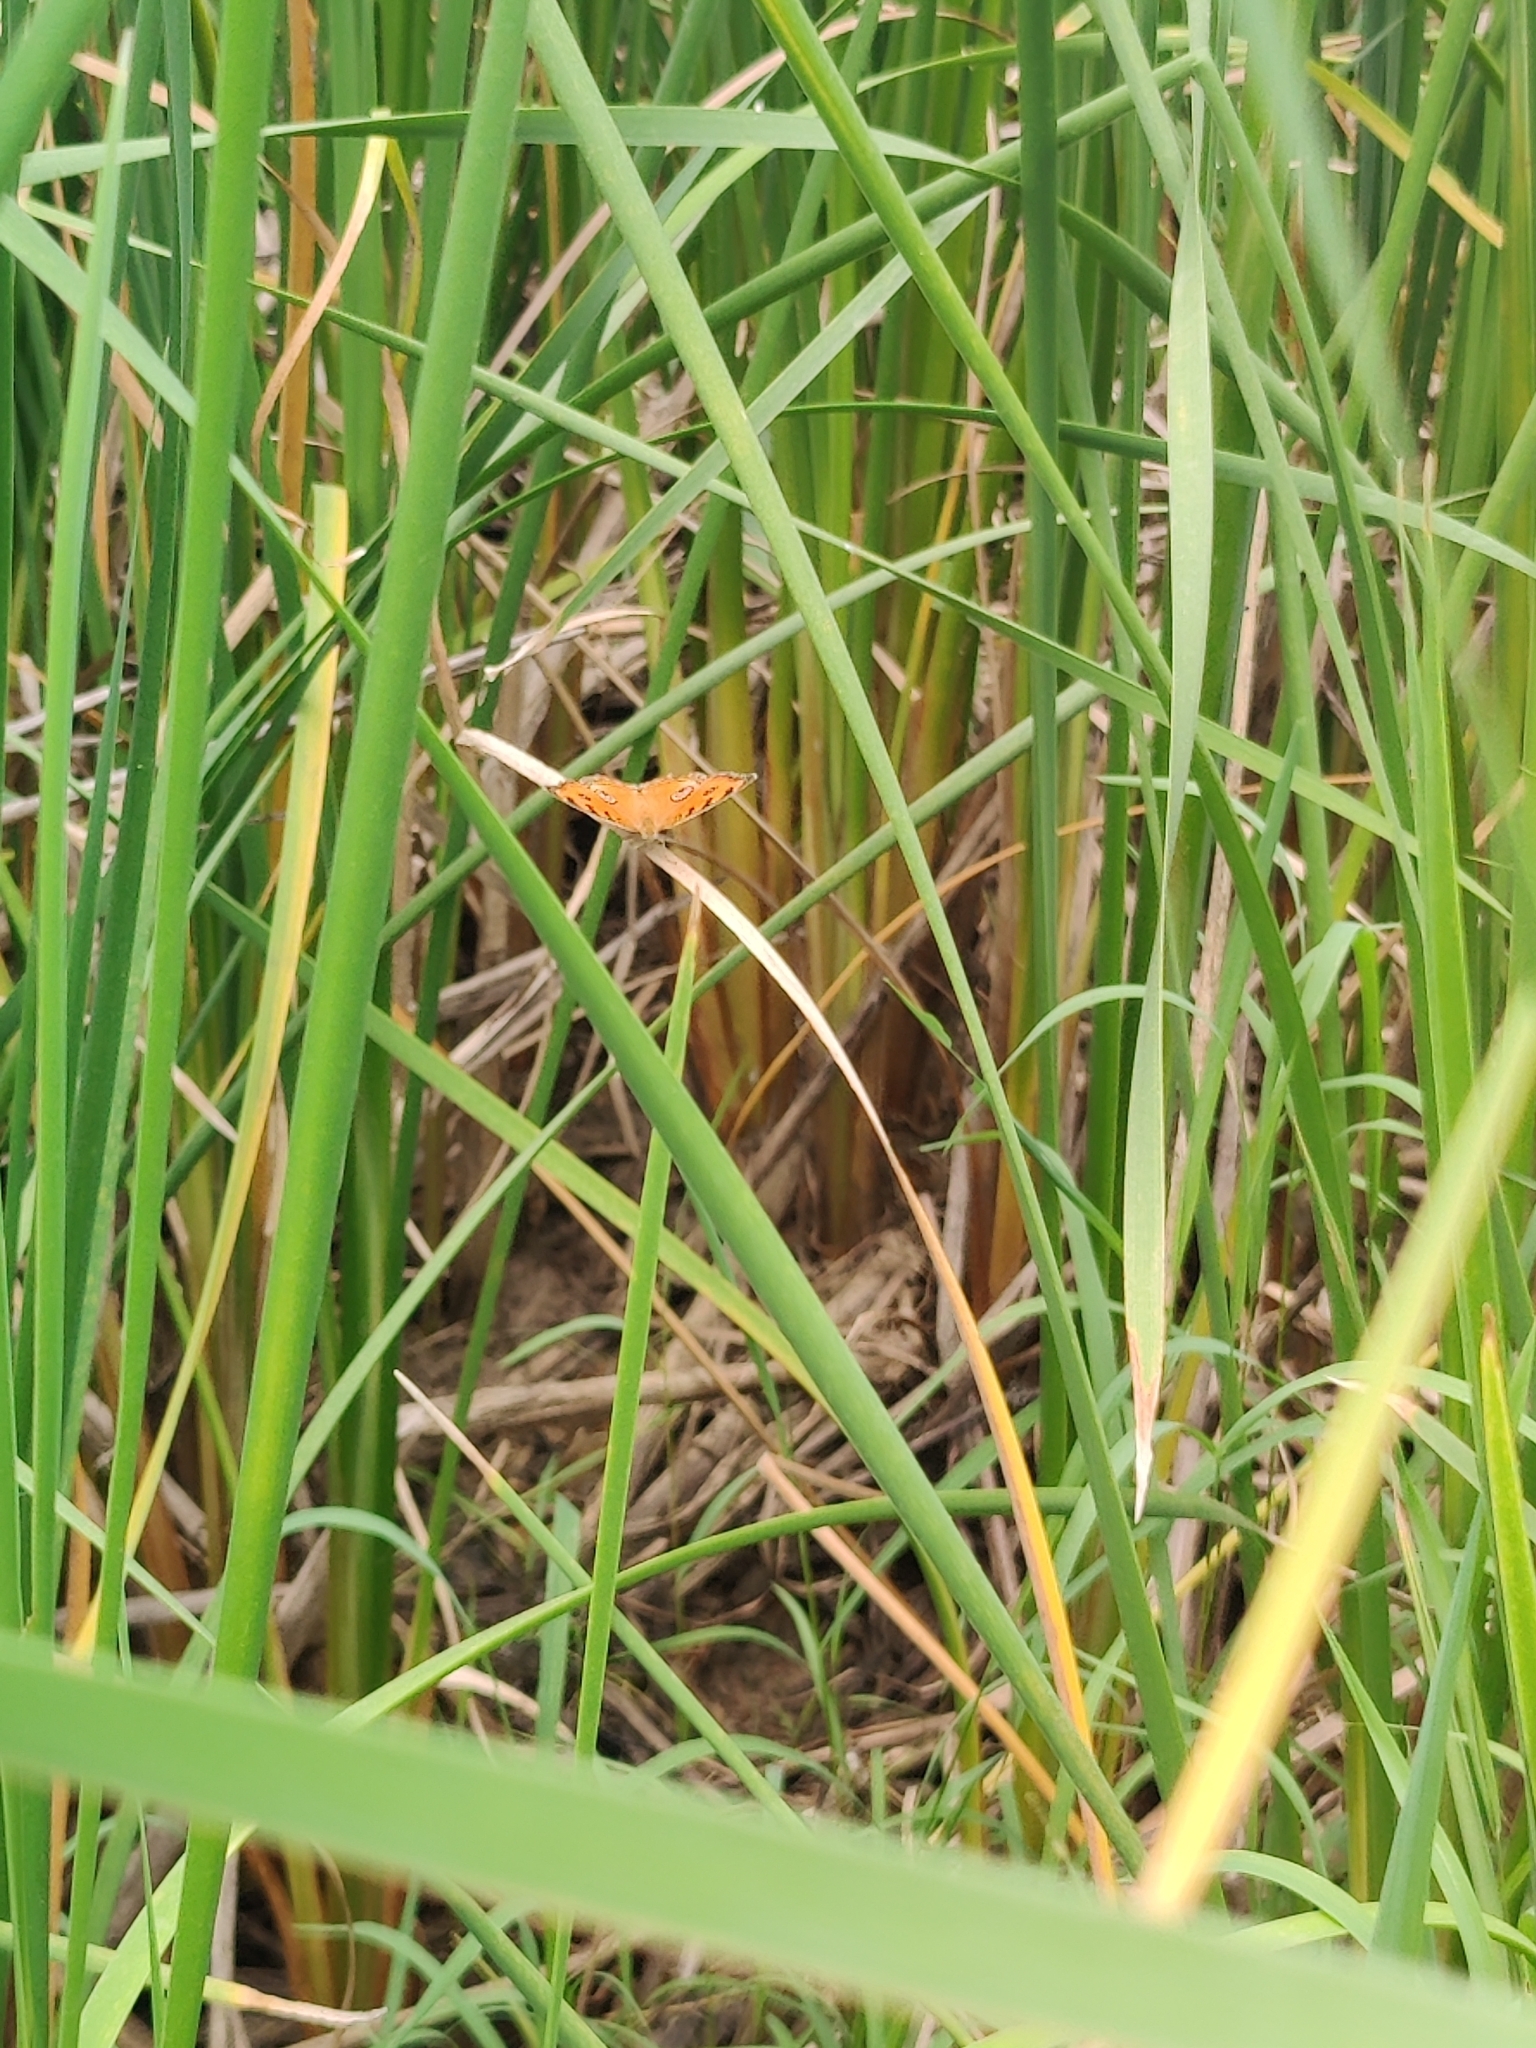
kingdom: Animalia
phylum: Arthropoda
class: Insecta
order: Lepidoptera
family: Nymphalidae
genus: Junonia
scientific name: Junonia almana
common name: Peacock pansy
